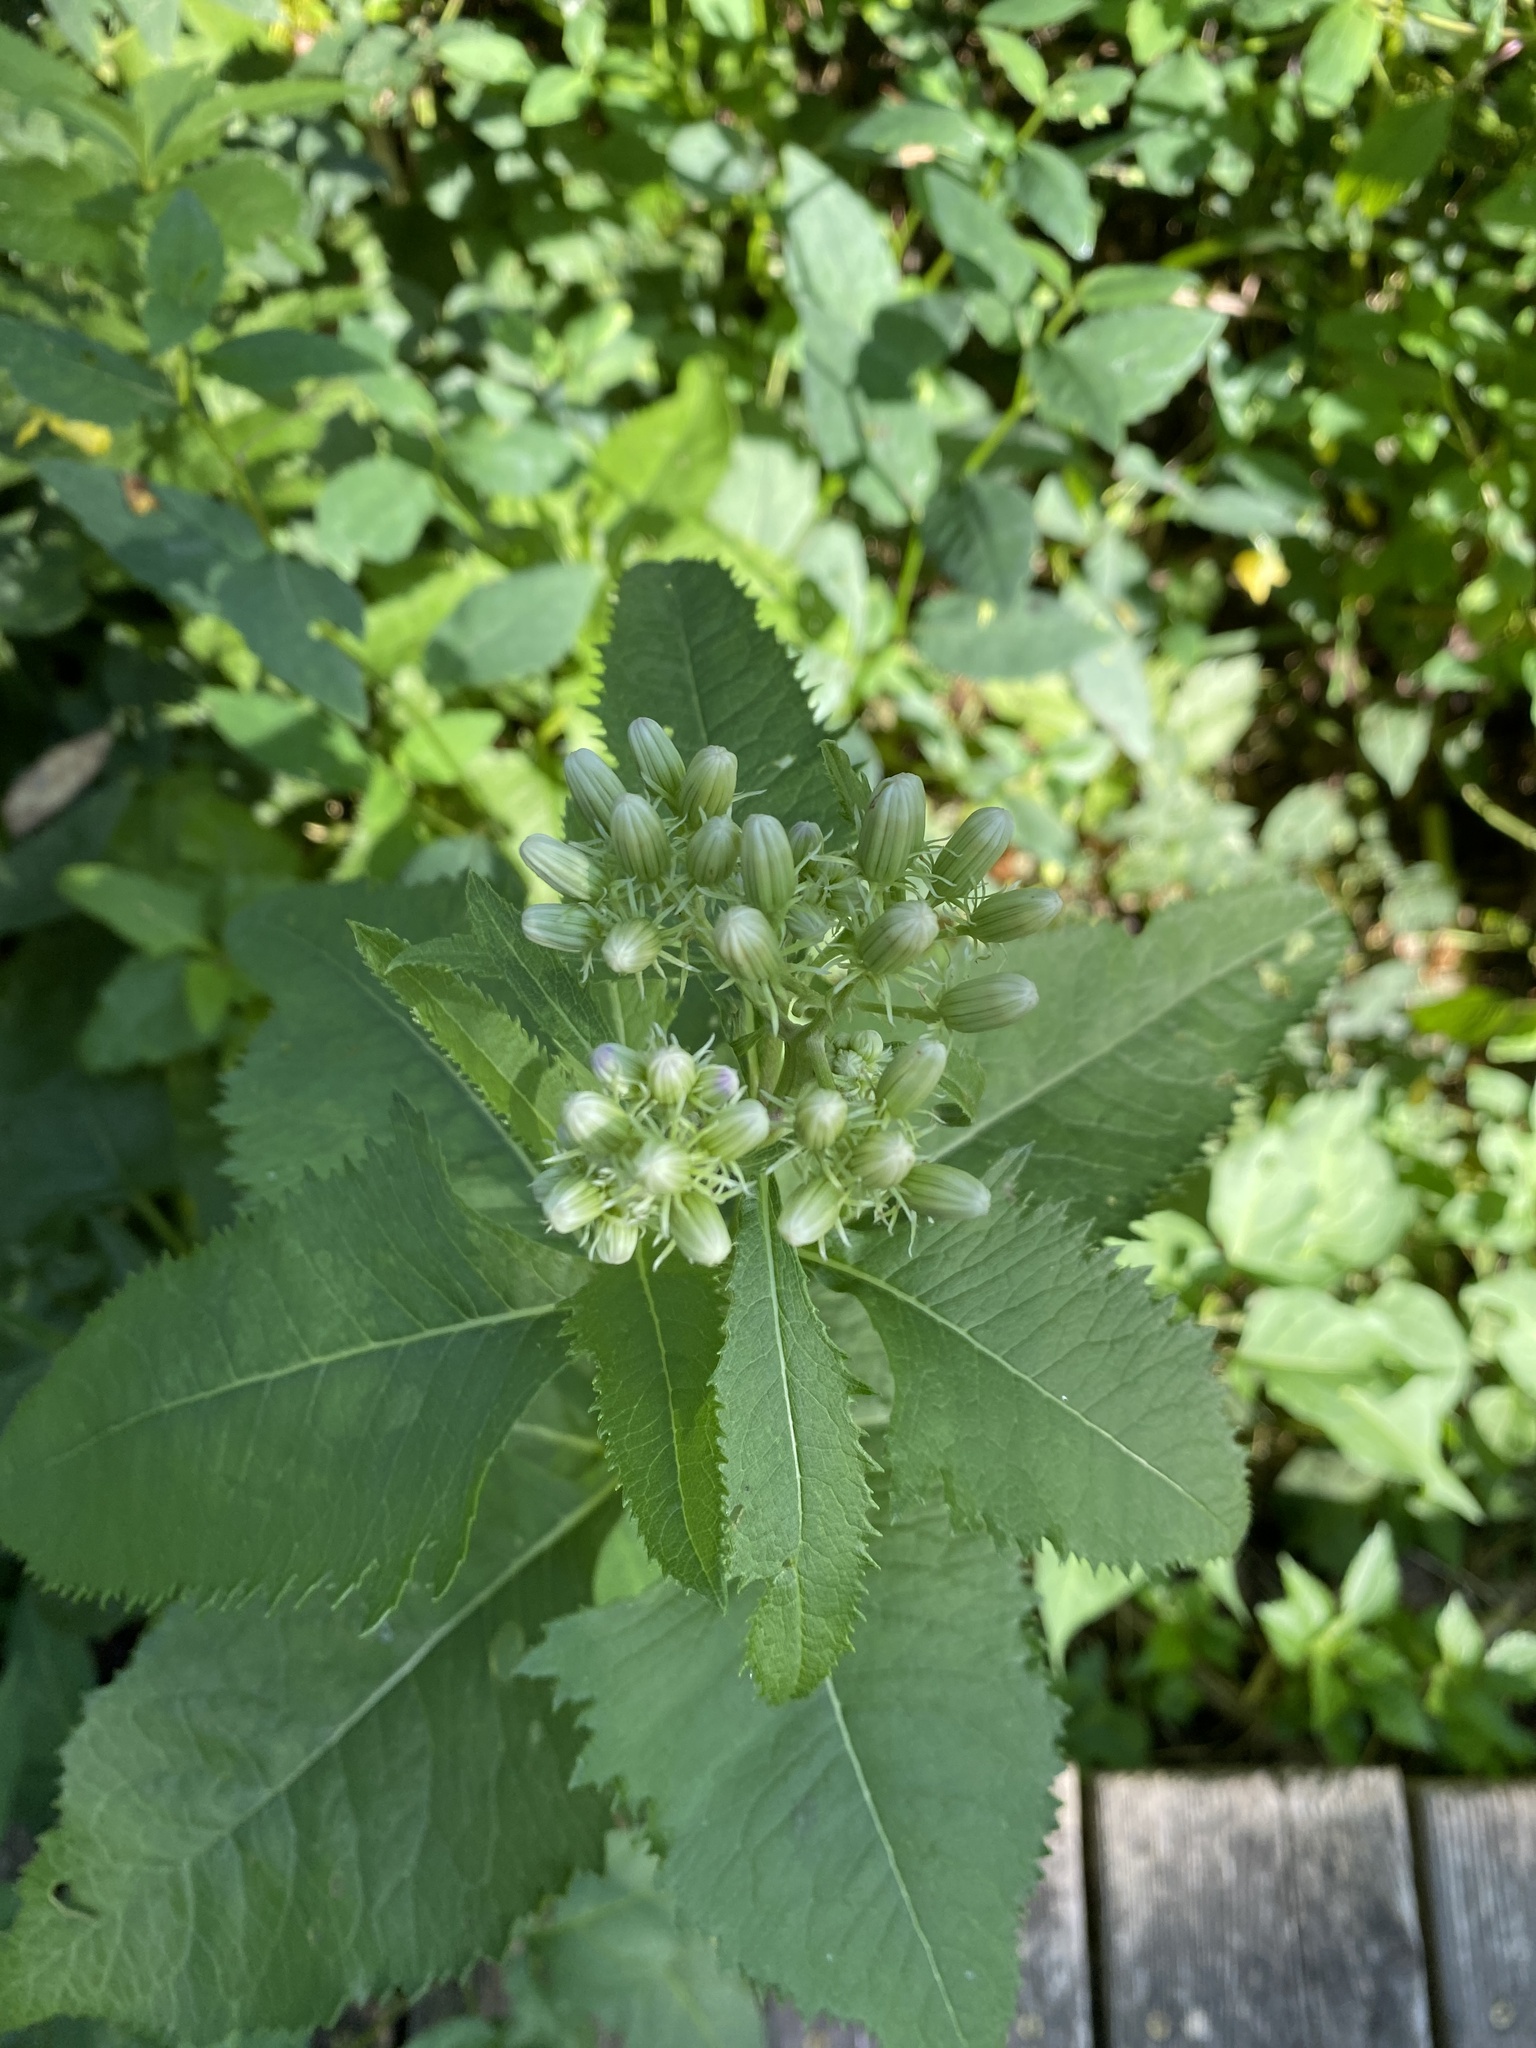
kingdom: Plantae
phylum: Tracheophyta
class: Magnoliopsida
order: Asterales
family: Asteraceae
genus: Hasteola
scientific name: Hasteola suaveolens
